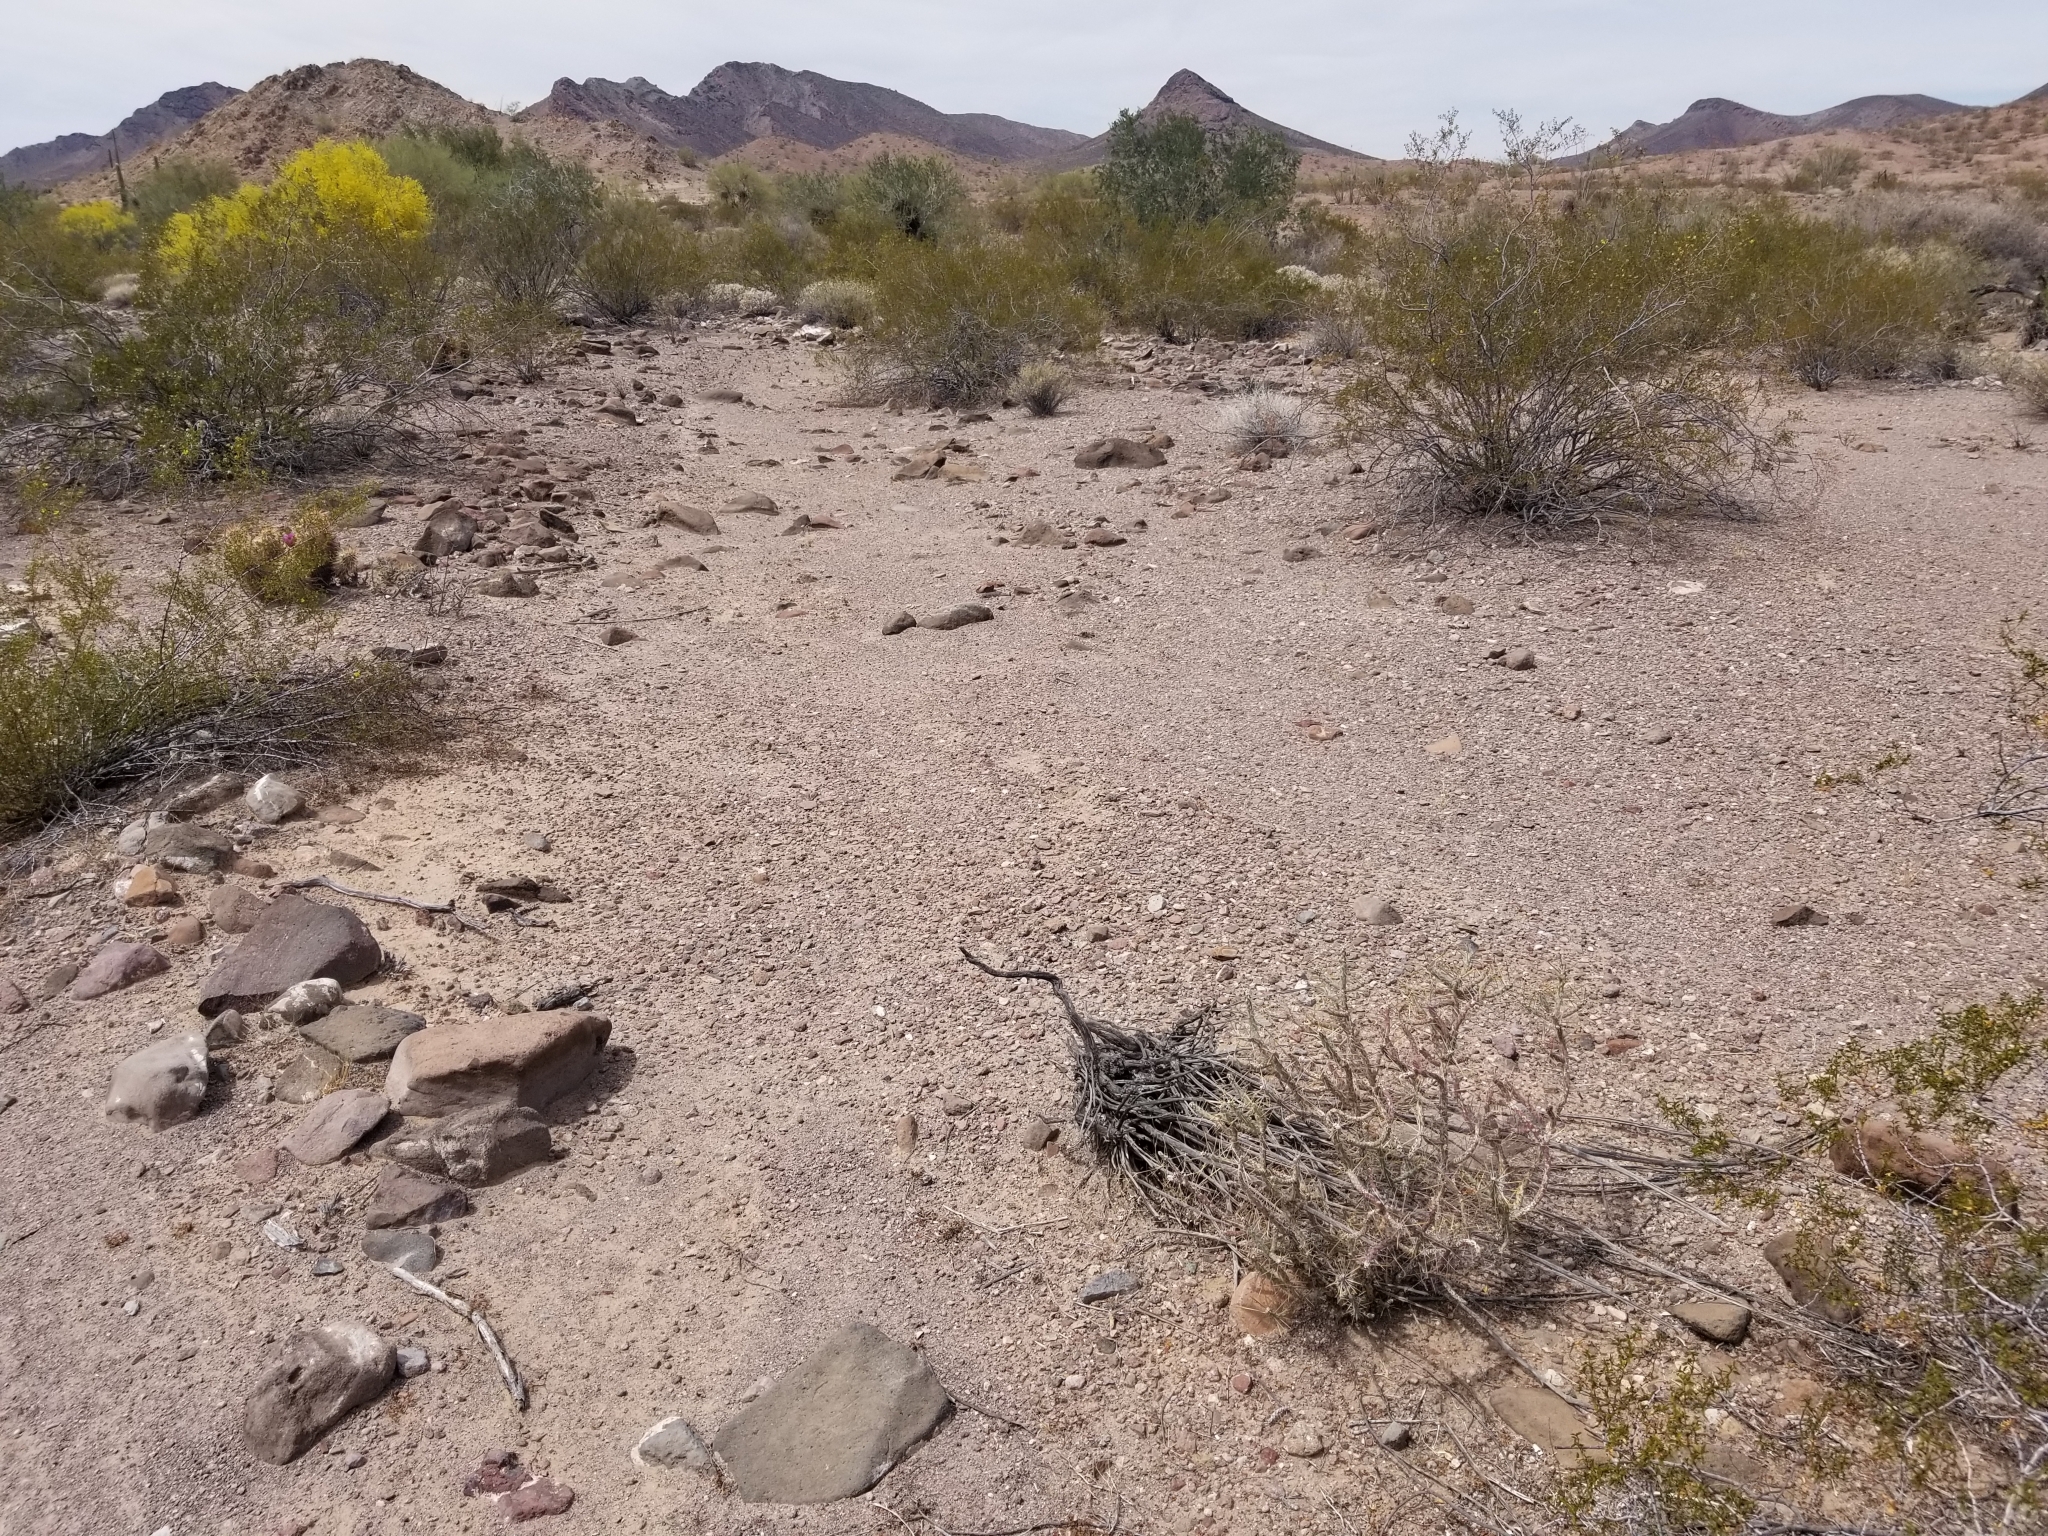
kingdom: Plantae
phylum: Tracheophyta
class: Magnoliopsida
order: Caryophyllales
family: Cactaceae
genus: Cylindropuntia
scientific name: Cylindropuntia ramosissima
